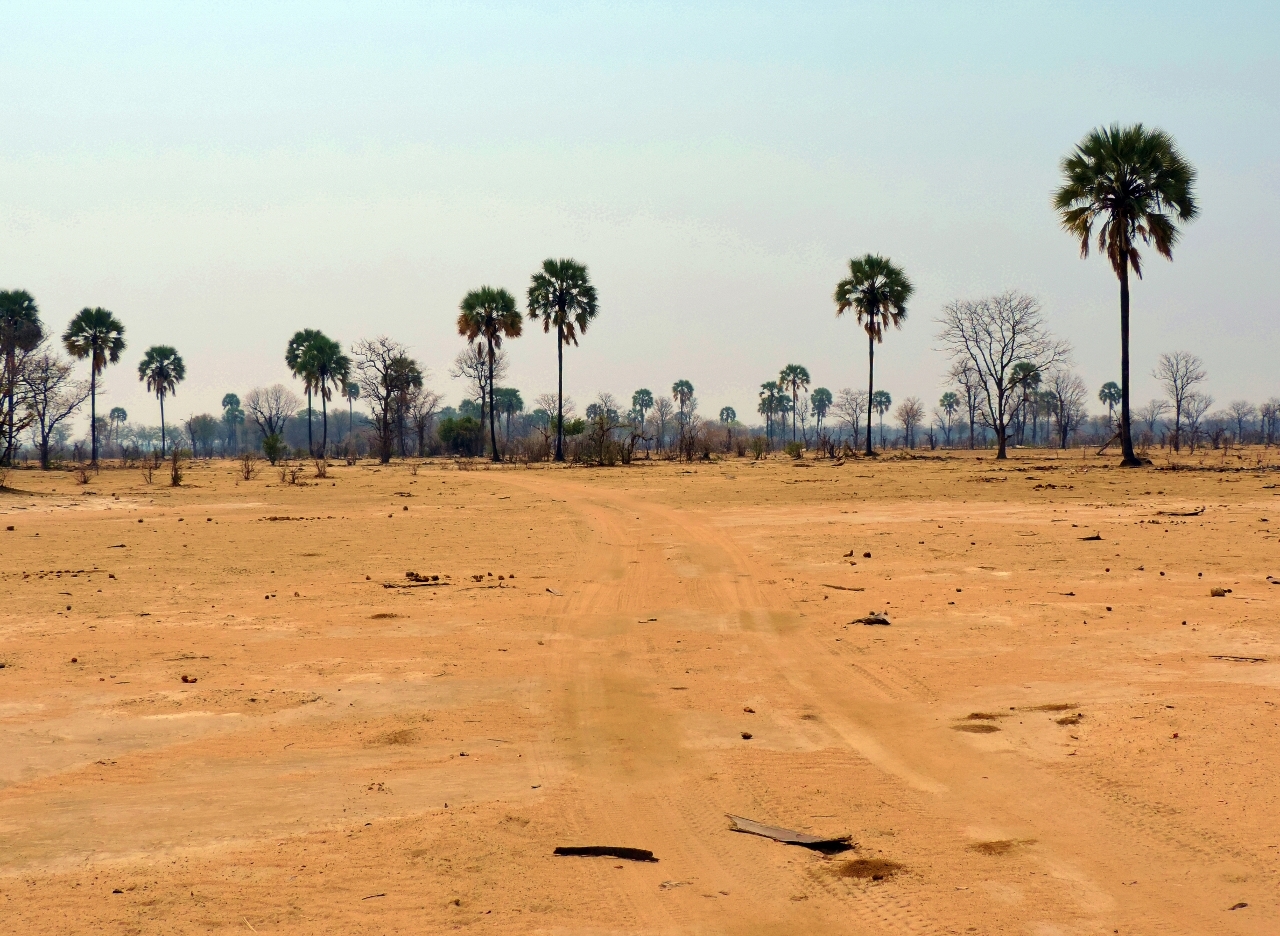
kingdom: Plantae
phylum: Tracheophyta
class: Liliopsida
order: Arecales
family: Arecaceae
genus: Hyphaene
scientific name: Hyphaene petersiana
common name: African ivory nut palm
